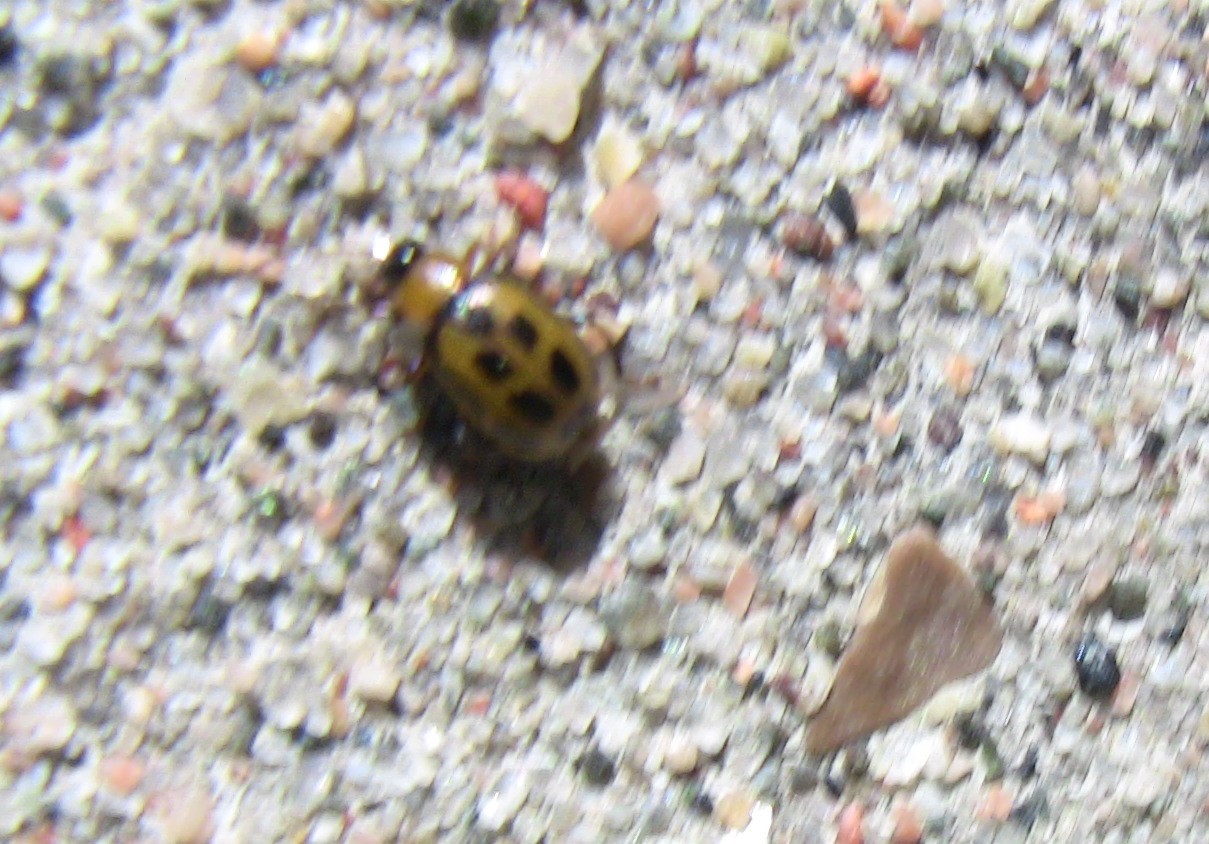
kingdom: Animalia
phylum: Arthropoda
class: Insecta
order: Coleoptera
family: Chrysomelidae
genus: Cerotoma
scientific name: Cerotoma trifurcata
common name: Bean leaf beetle
